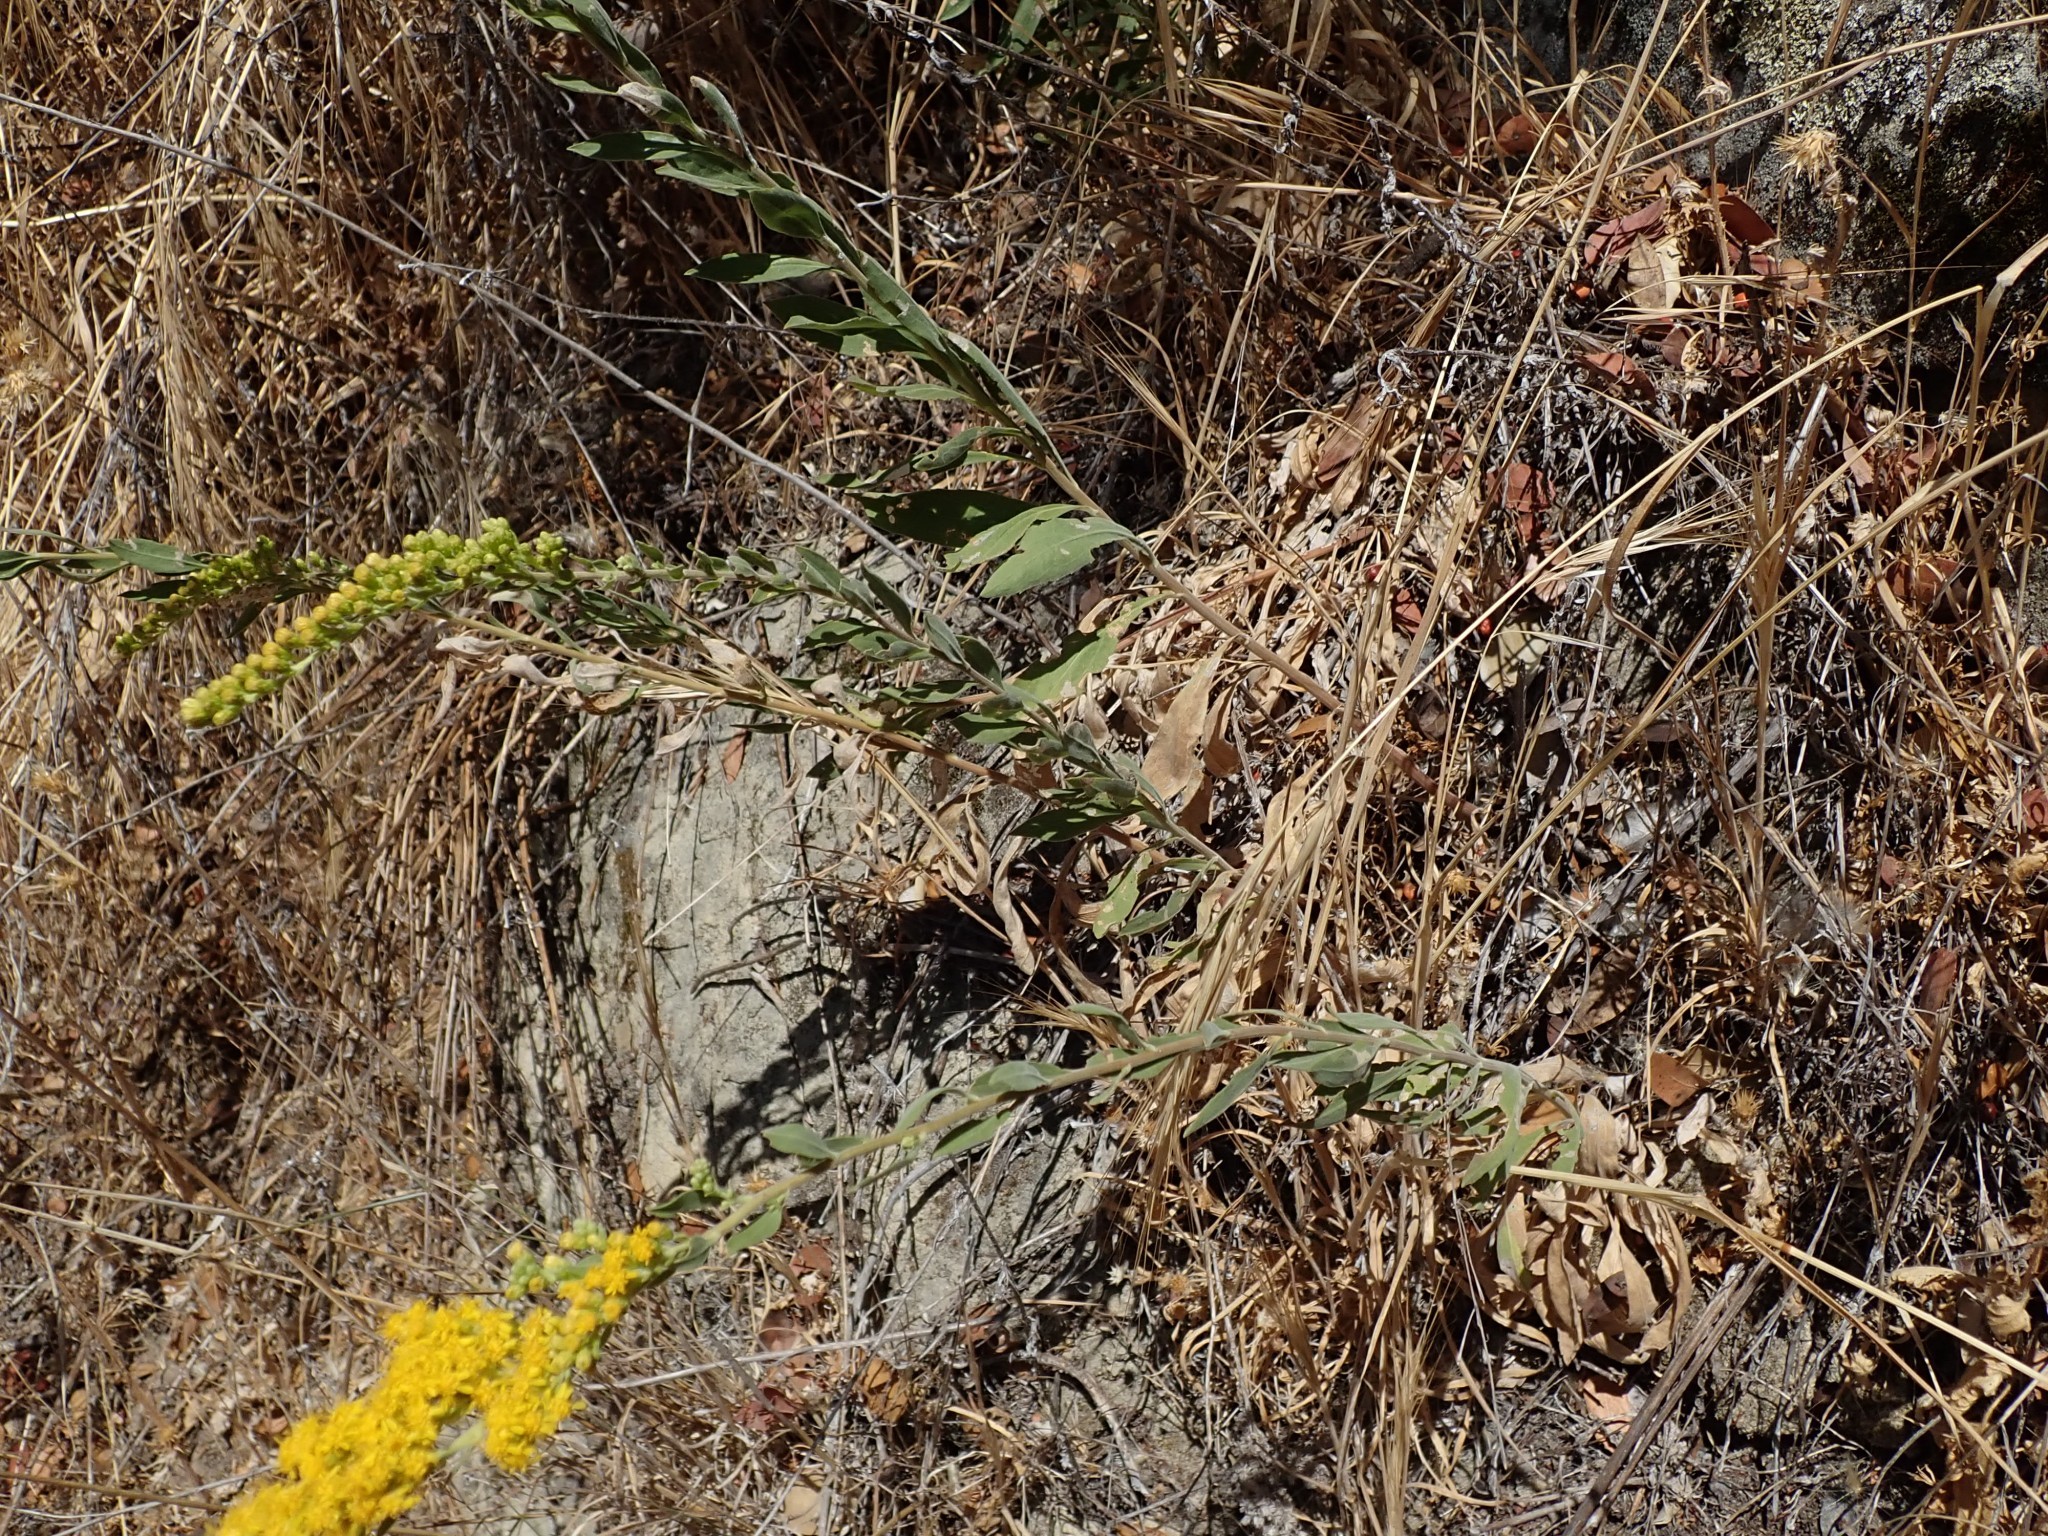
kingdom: Plantae
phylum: Tracheophyta
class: Magnoliopsida
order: Asterales
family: Asteraceae
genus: Solidago
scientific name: Solidago californica
